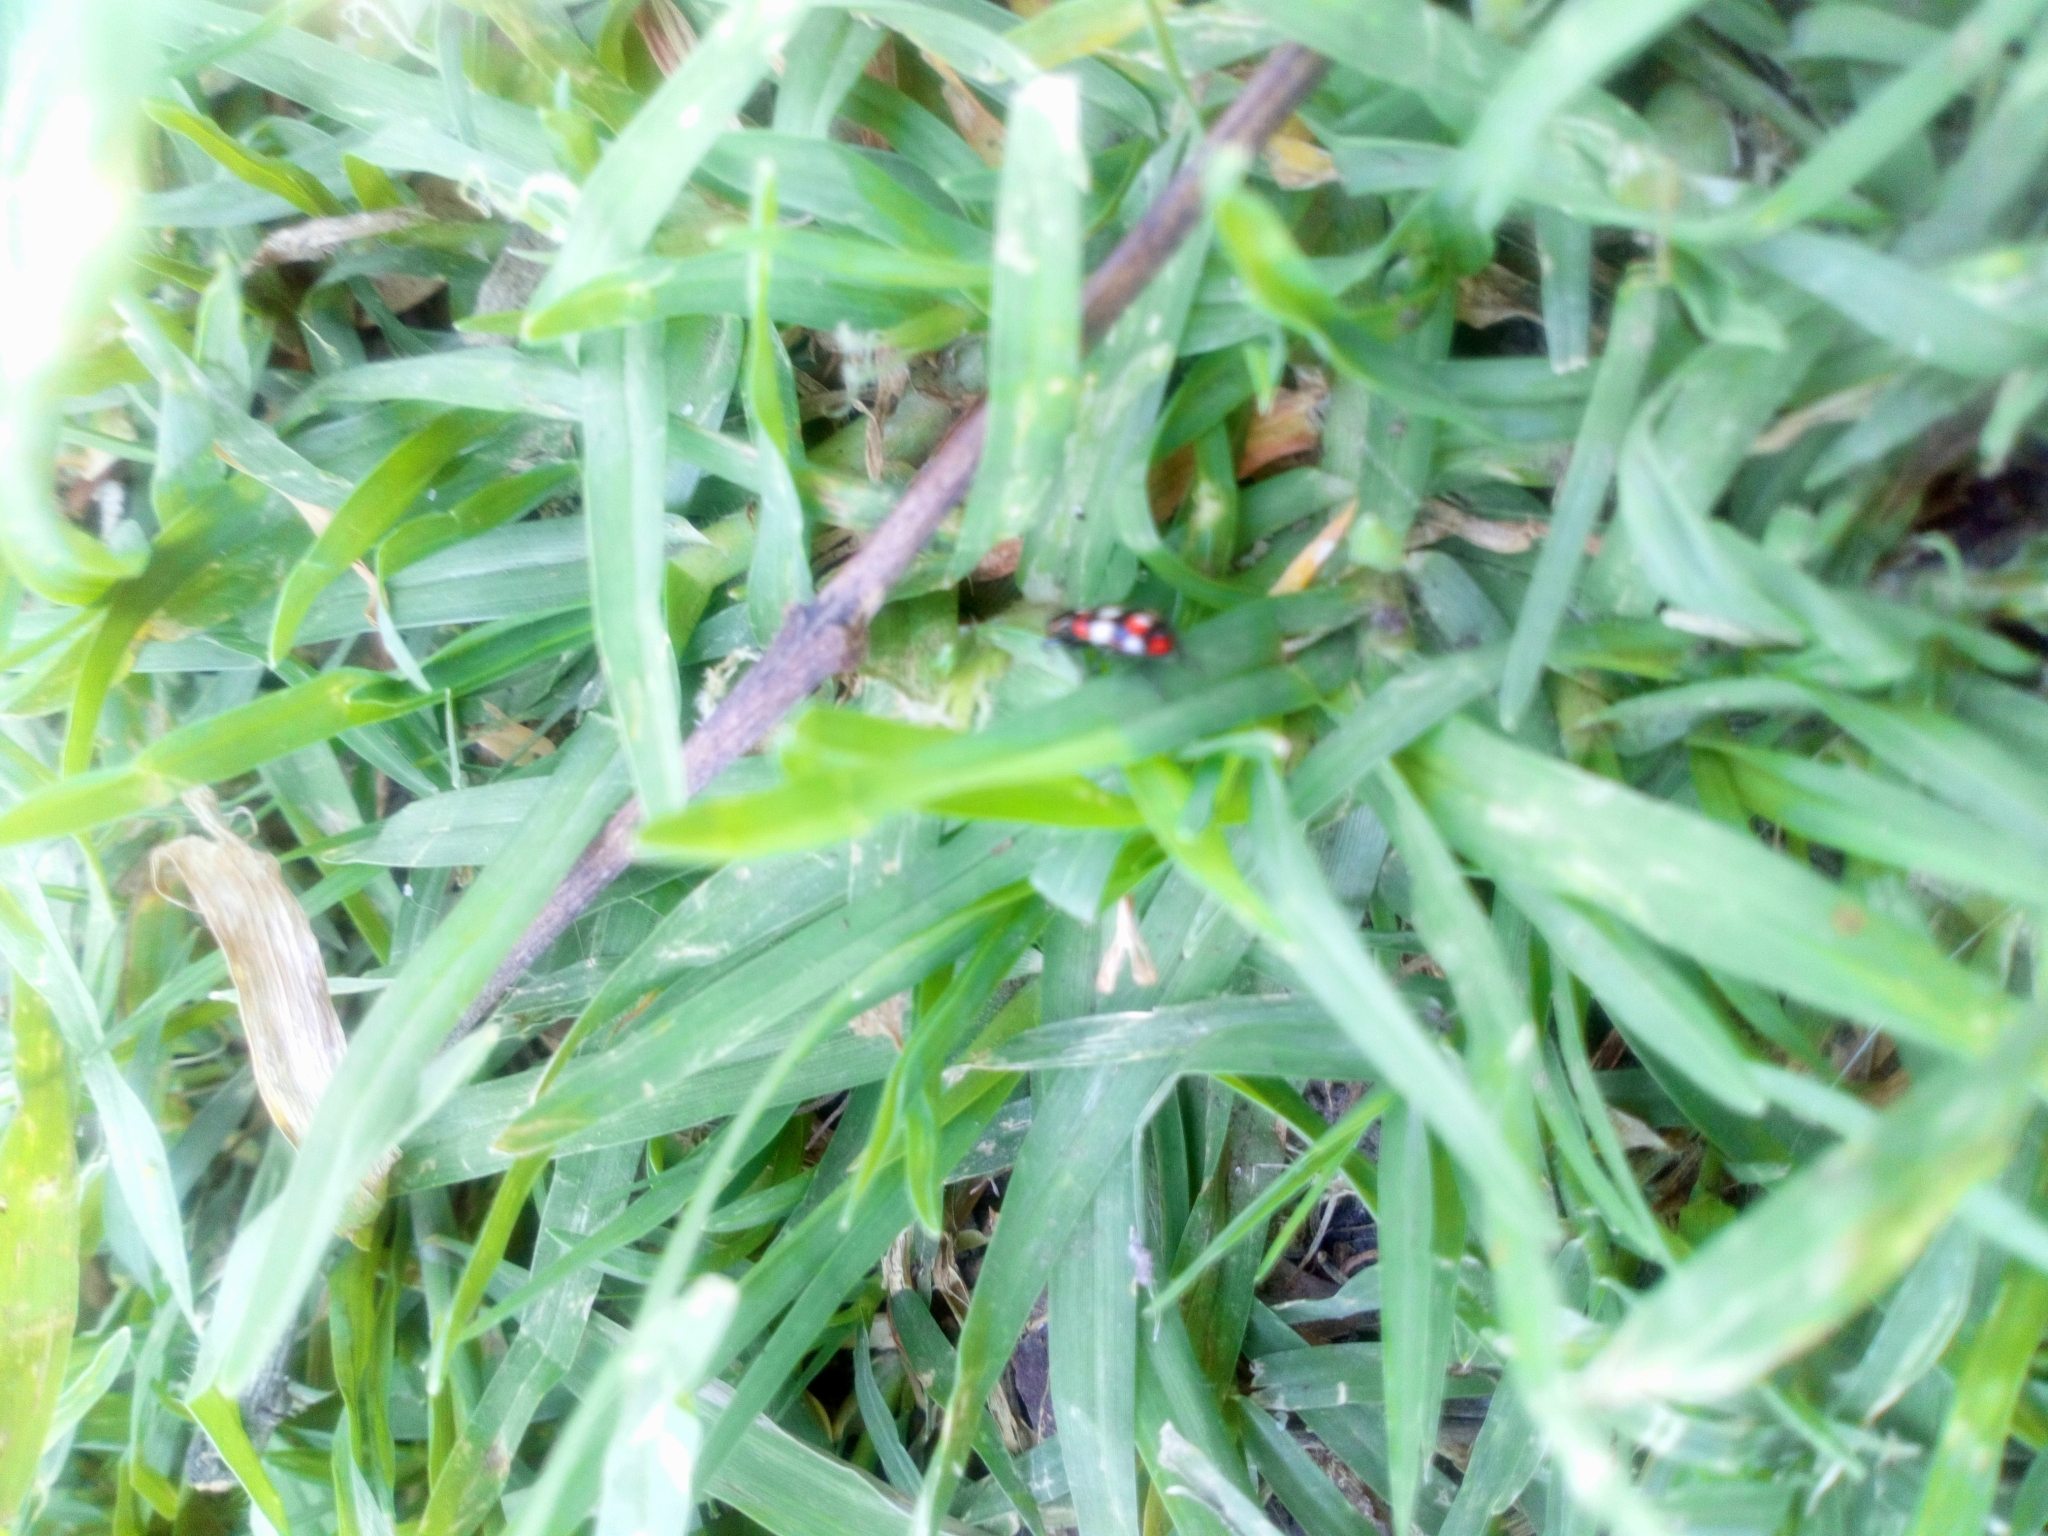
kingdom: Animalia
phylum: Arthropoda
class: Insecta
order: Coleoptera
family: Coccinellidae
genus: Eriopis
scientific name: Eriopis connexa
